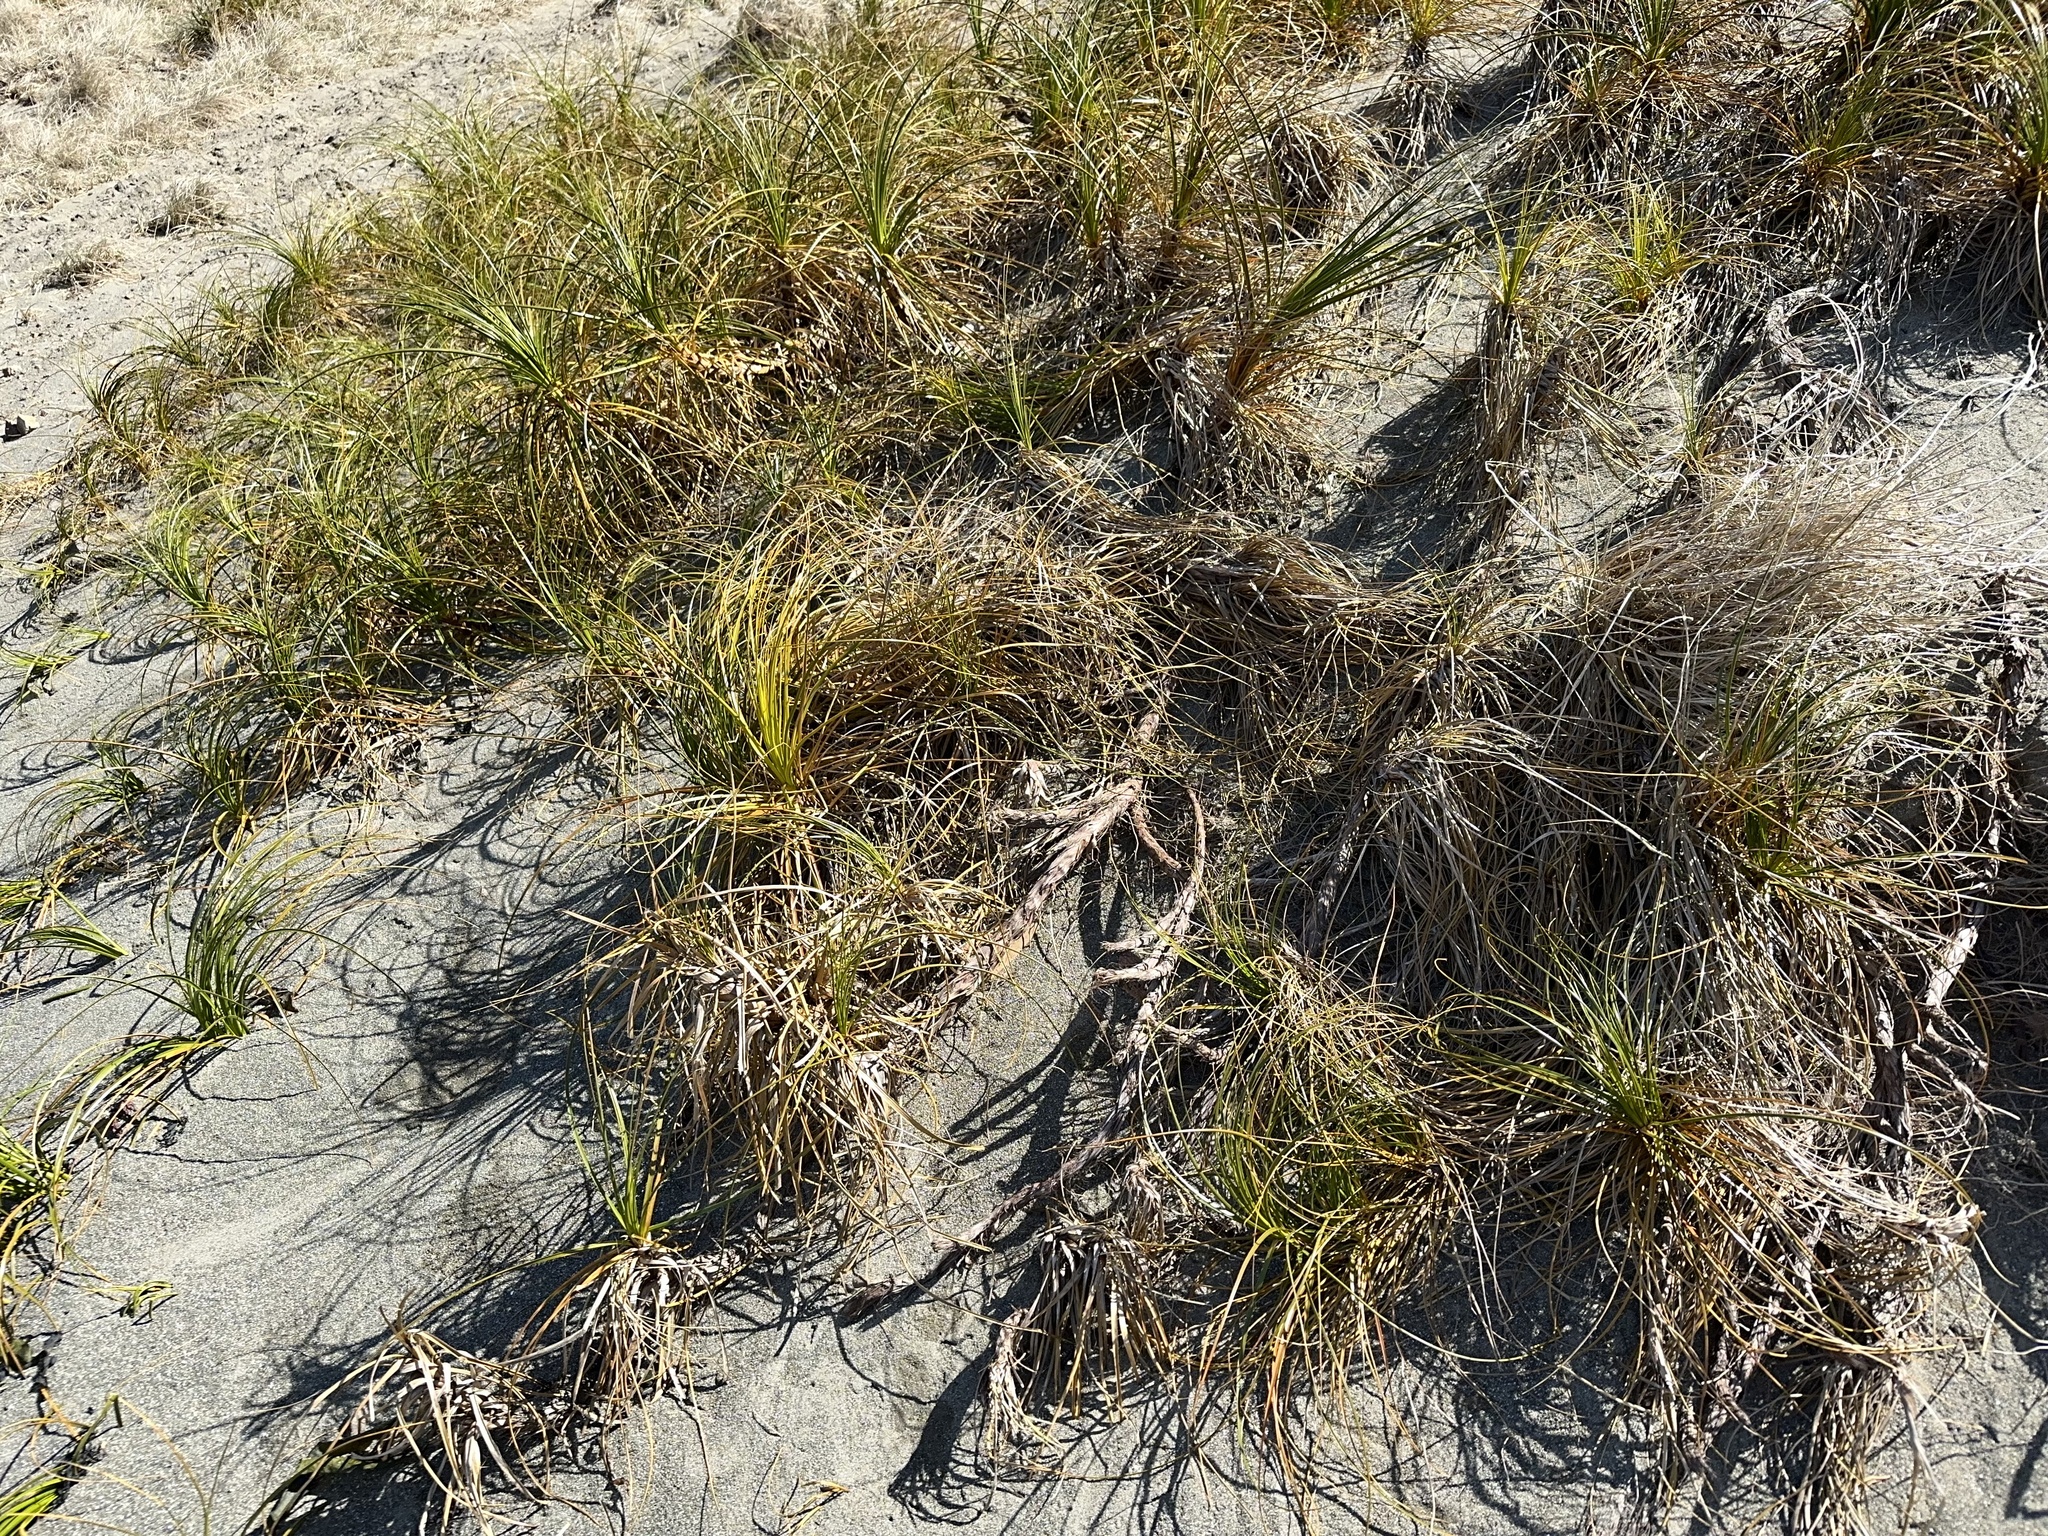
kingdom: Plantae
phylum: Tracheophyta
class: Liliopsida
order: Poales
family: Cyperaceae
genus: Ficinia
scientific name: Ficinia spiralis
